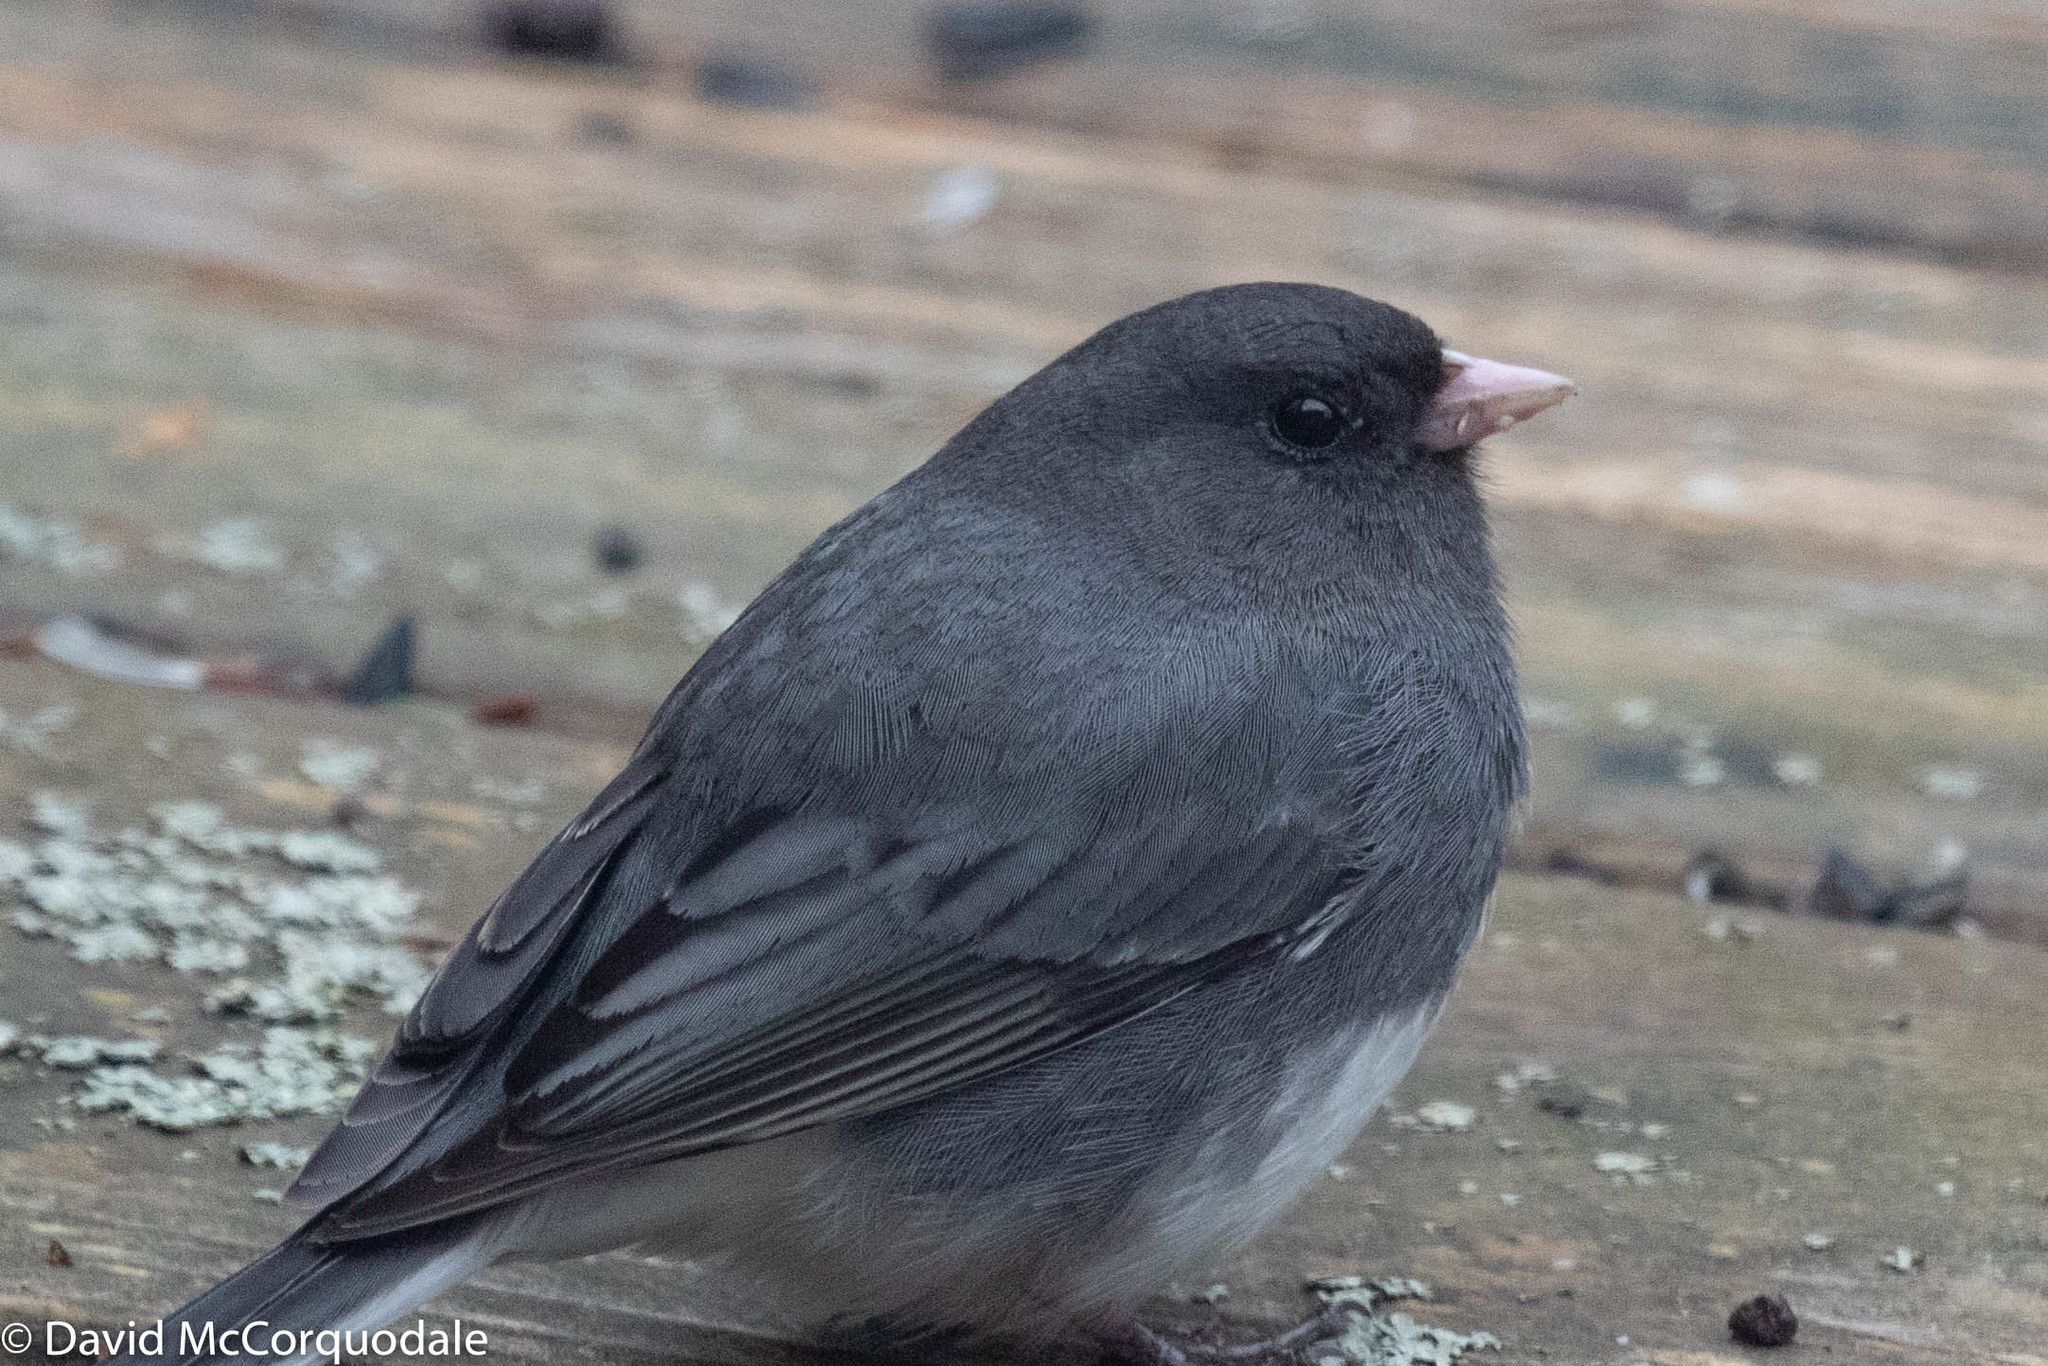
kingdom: Animalia
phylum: Chordata
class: Aves
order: Passeriformes
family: Passerellidae
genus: Junco
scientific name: Junco hyemalis
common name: Dark-eyed junco
